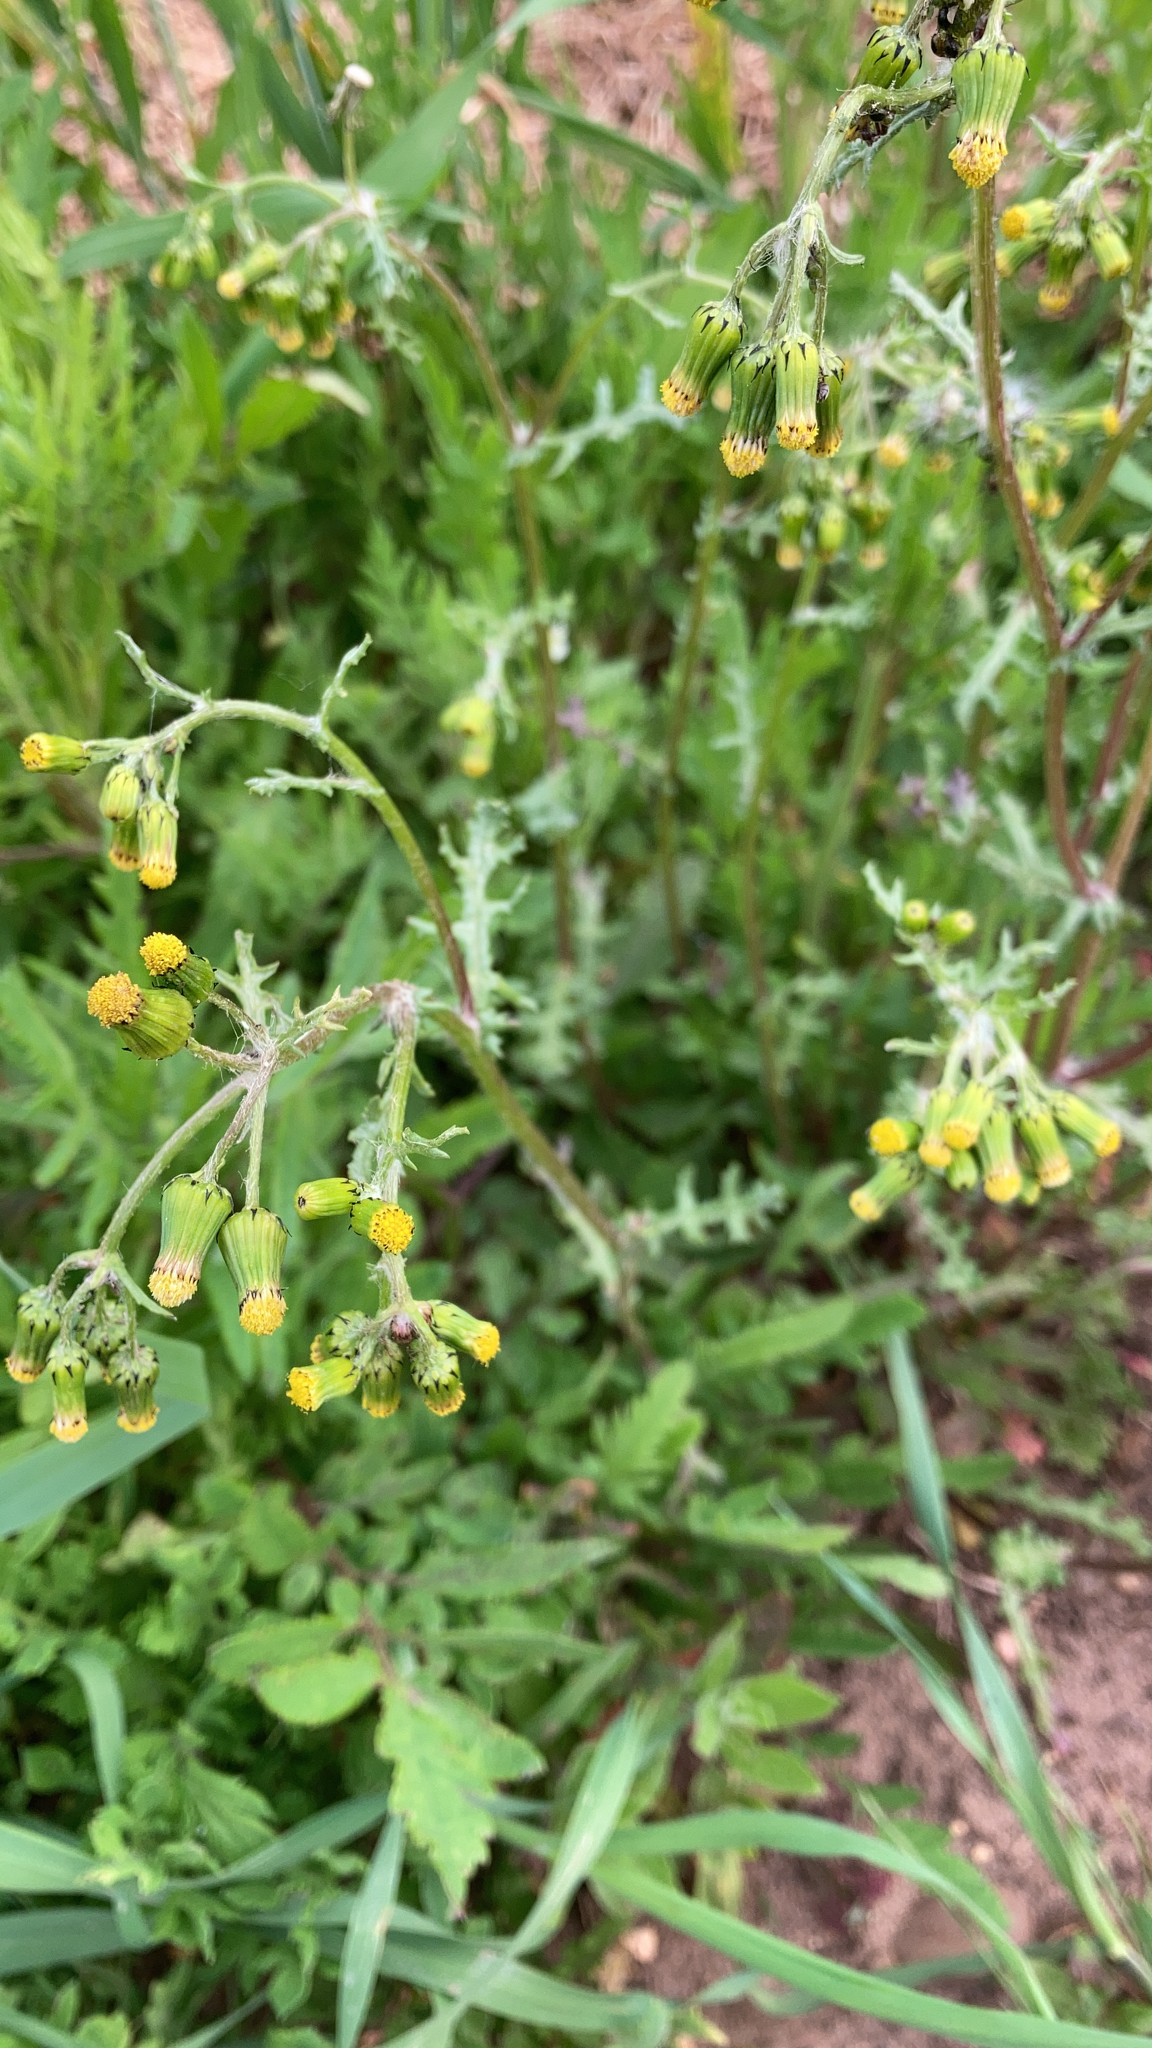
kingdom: Plantae
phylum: Tracheophyta
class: Magnoliopsida
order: Asterales
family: Asteraceae
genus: Senecio
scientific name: Senecio vulgaris
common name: Old-man-in-the-spring
